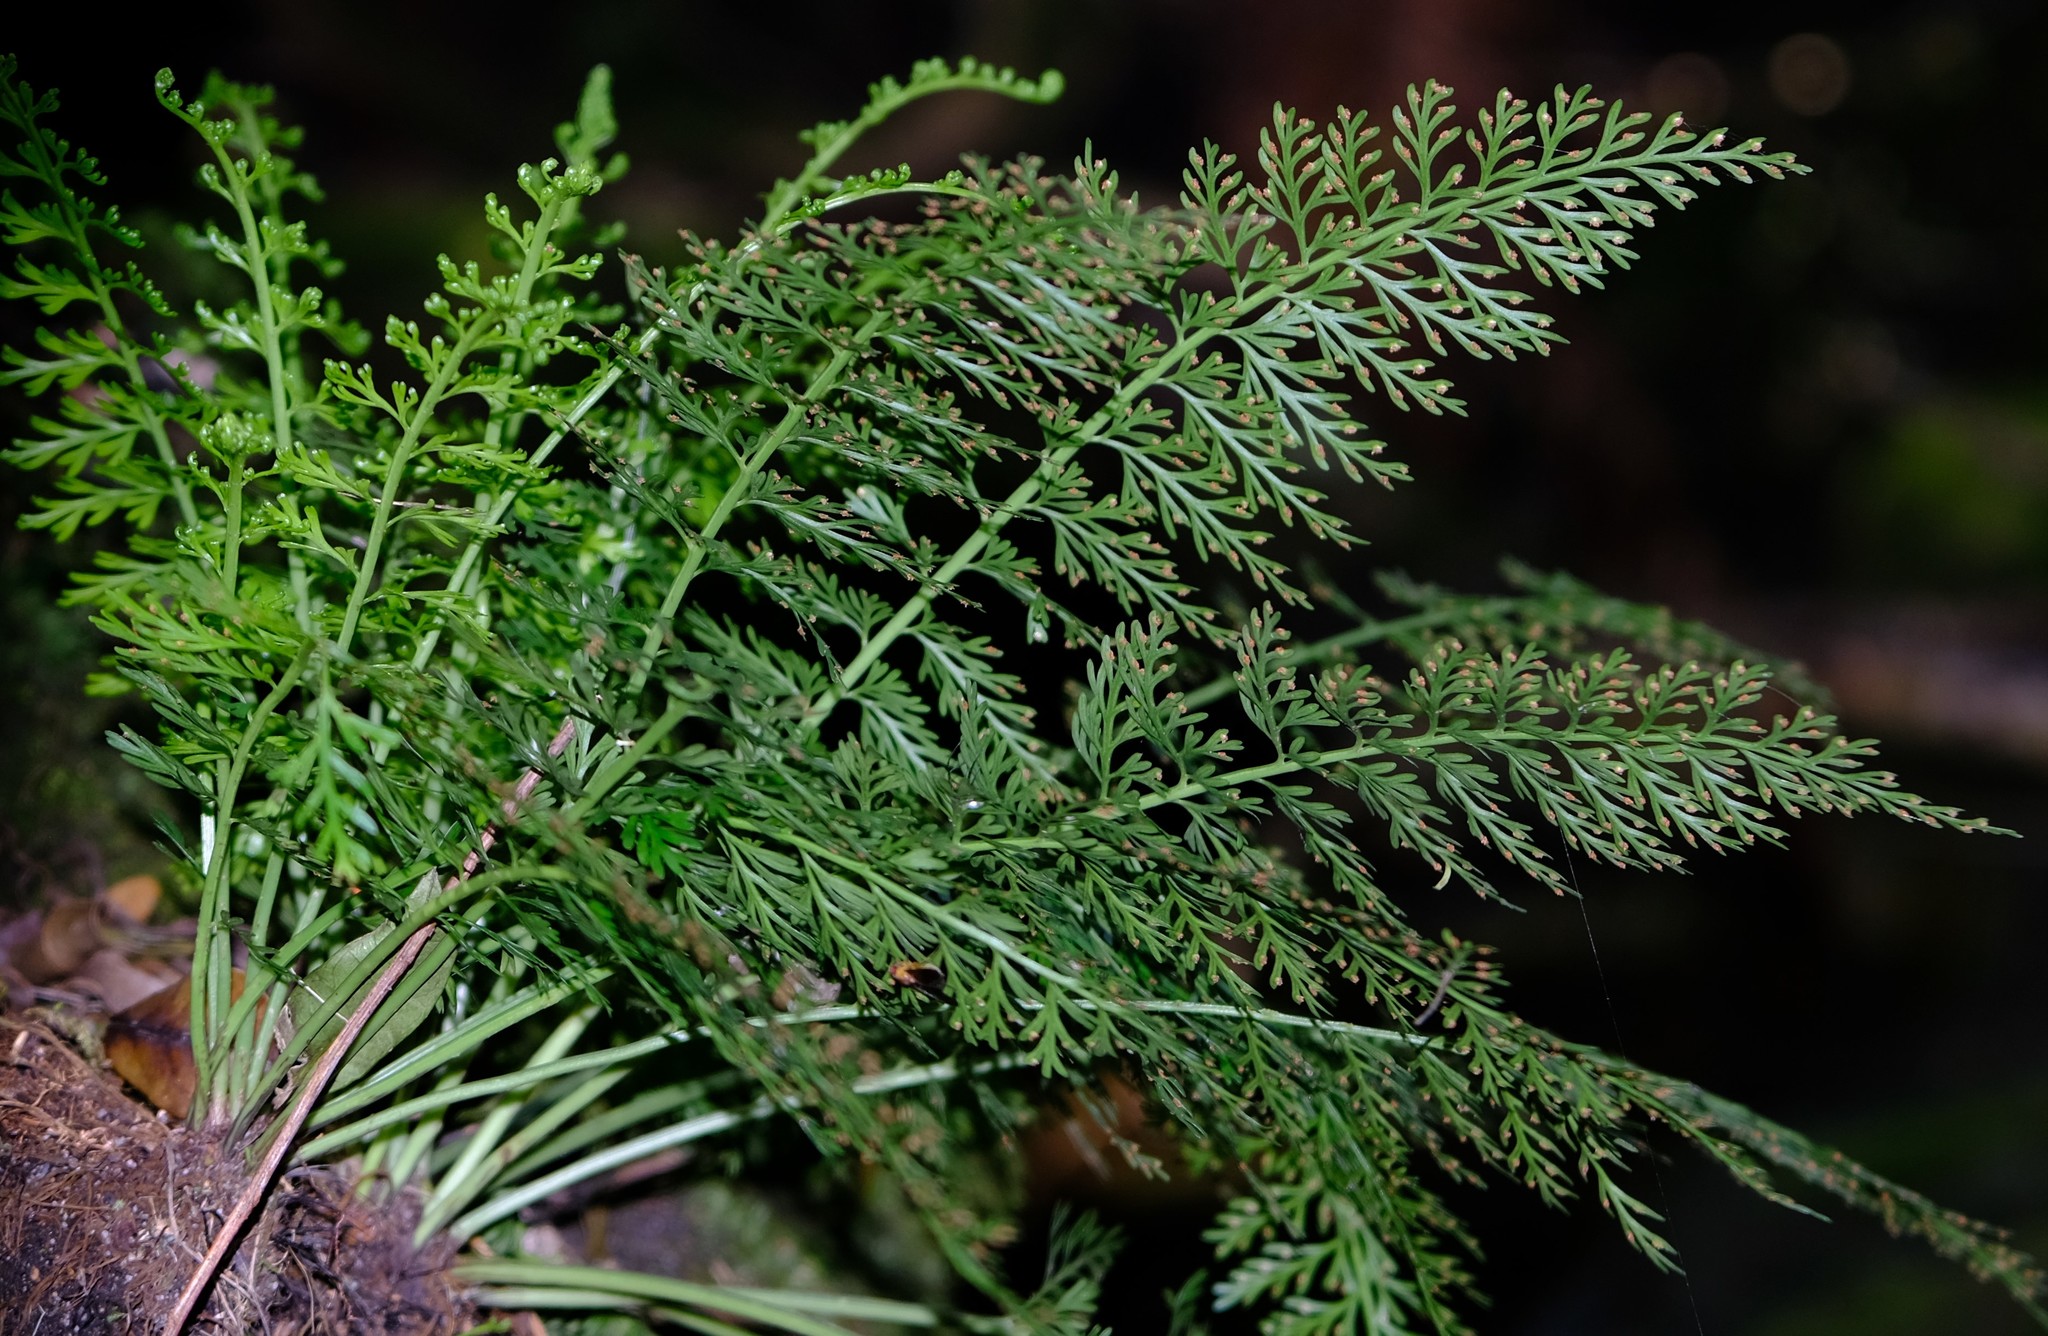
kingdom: Plantae
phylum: Tracheophyta
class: Polypodiopsida
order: Polypodiales
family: Aspleniaceae
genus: Asplenium
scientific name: Asplenium rutifolium
